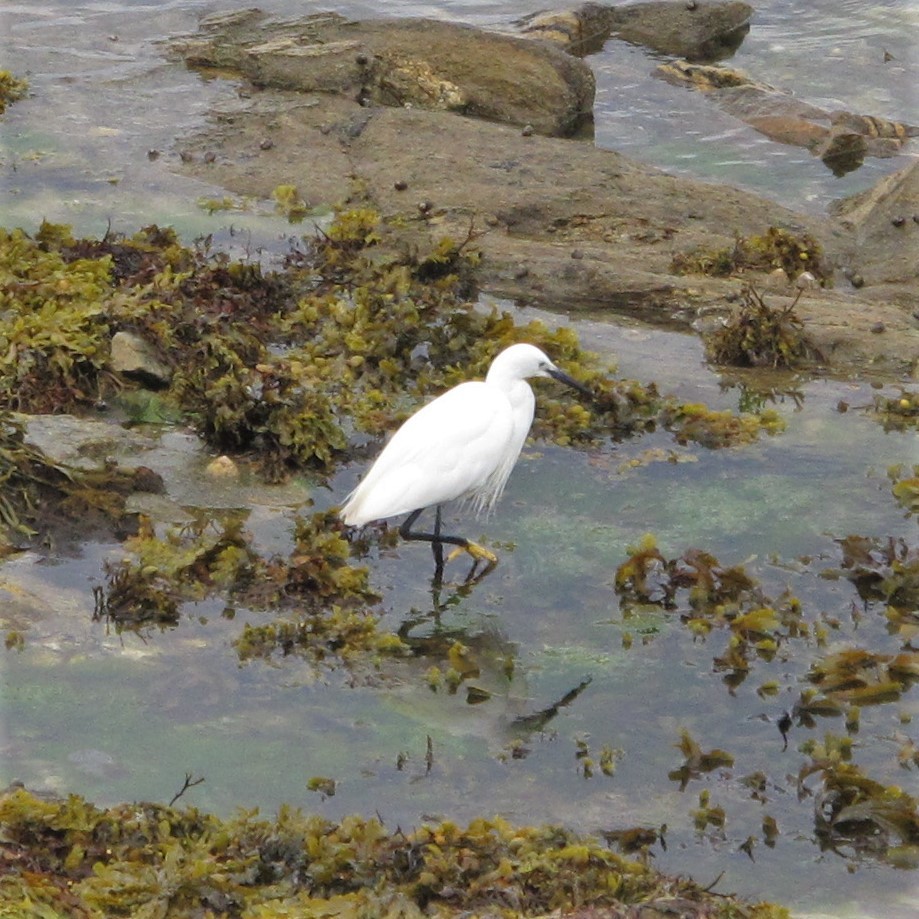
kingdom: Animalia
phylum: Chordata
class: Aves
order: Pelecaniformes
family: Ardeidae
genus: Egretta
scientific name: Egretta garzetta
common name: Little egret
